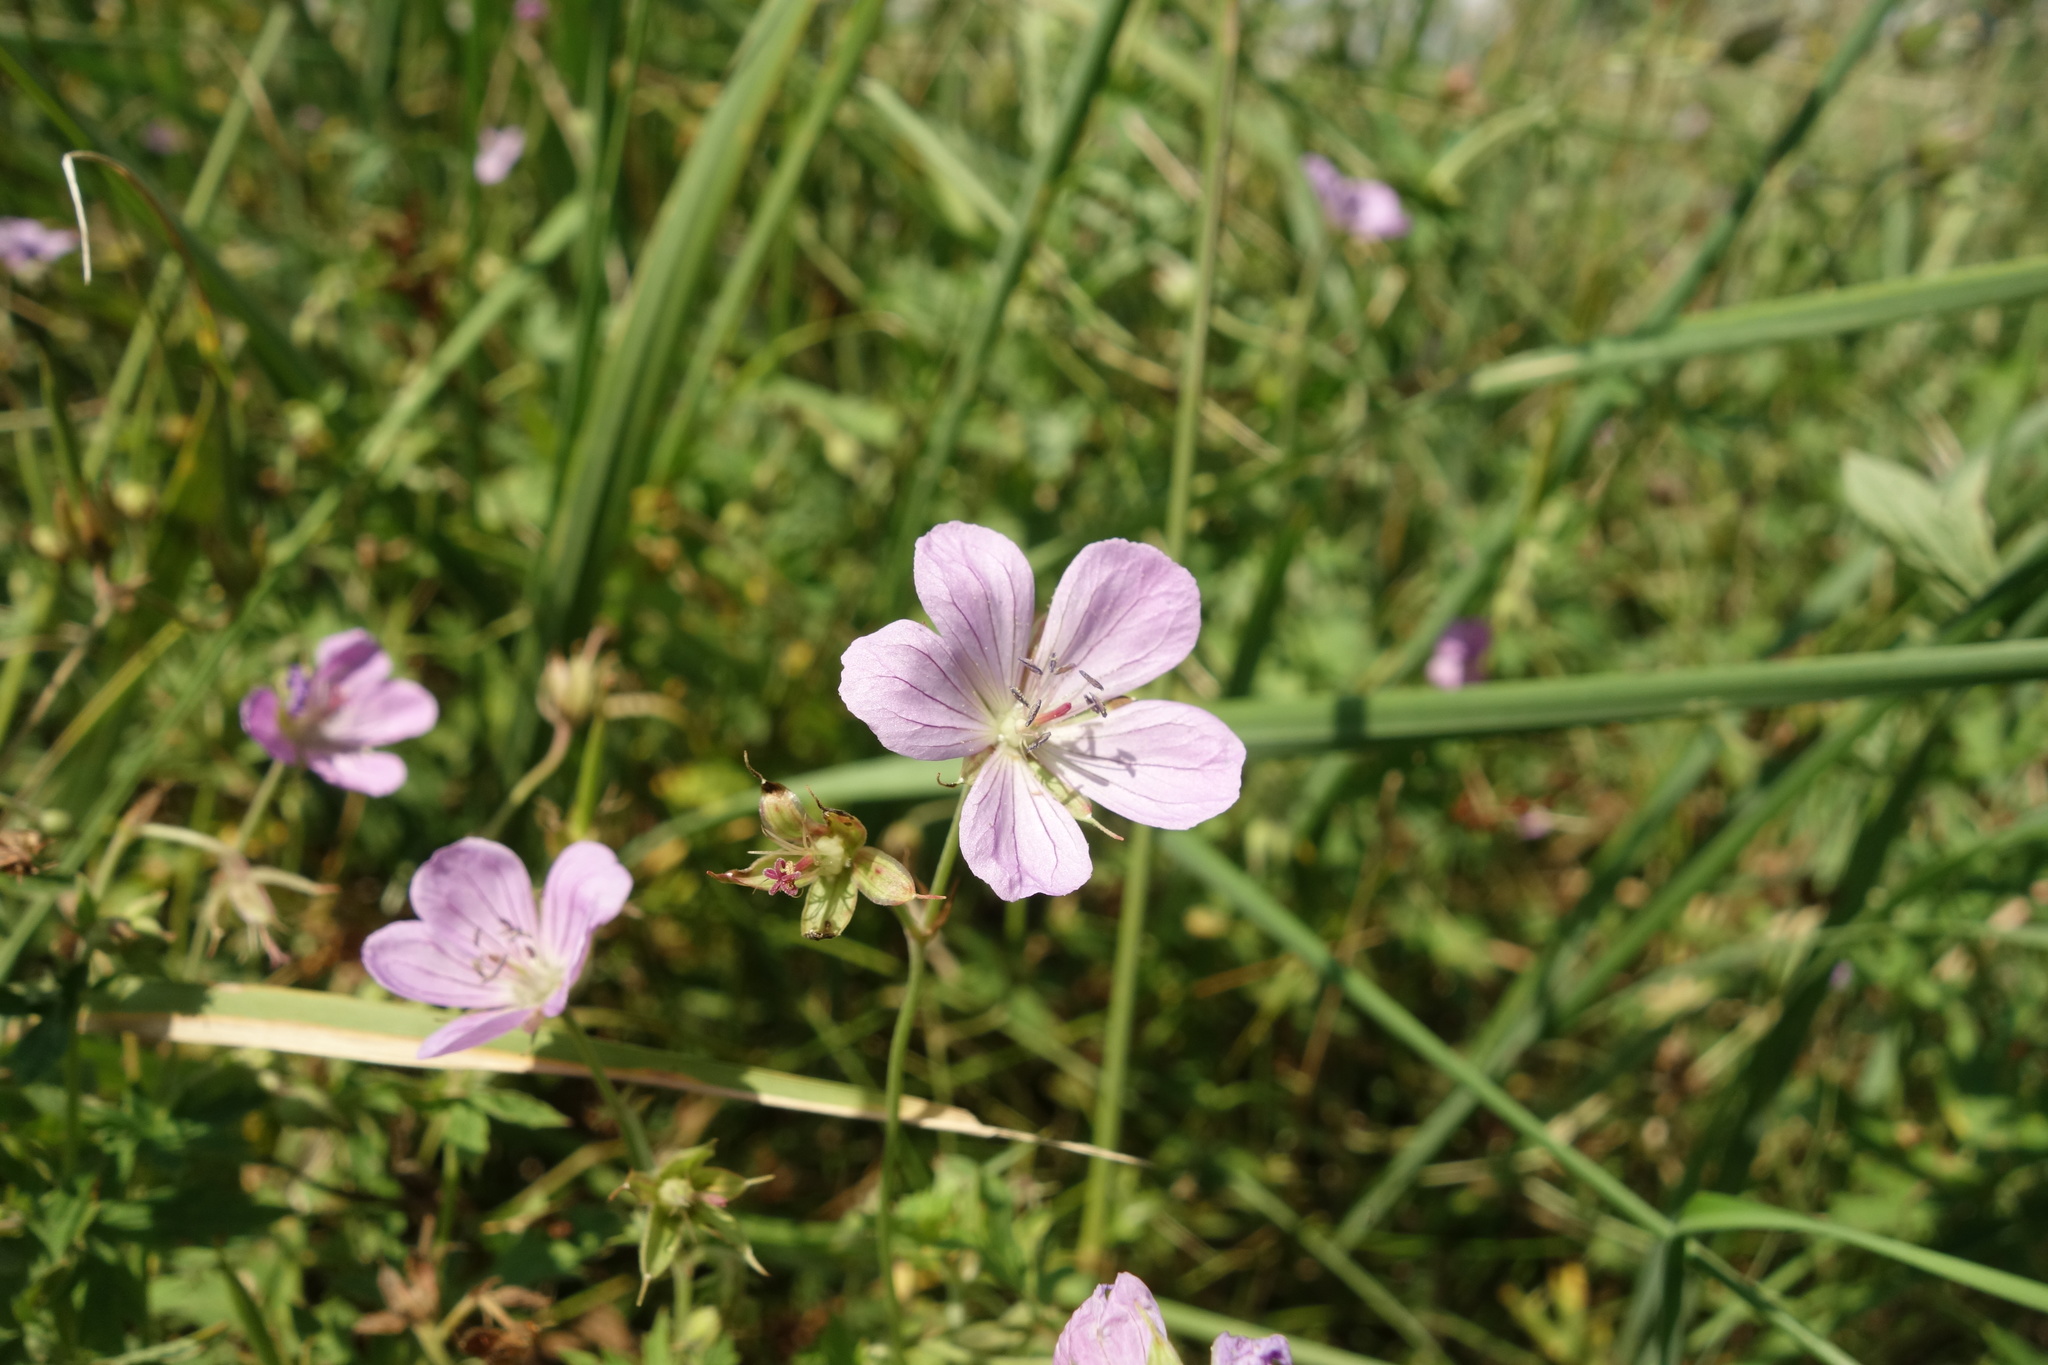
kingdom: Plantae
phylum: Tracheophyta
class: Magnoliopsida
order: Geraniales
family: Geraniaceae
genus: Geranium
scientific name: Geranium collinum
